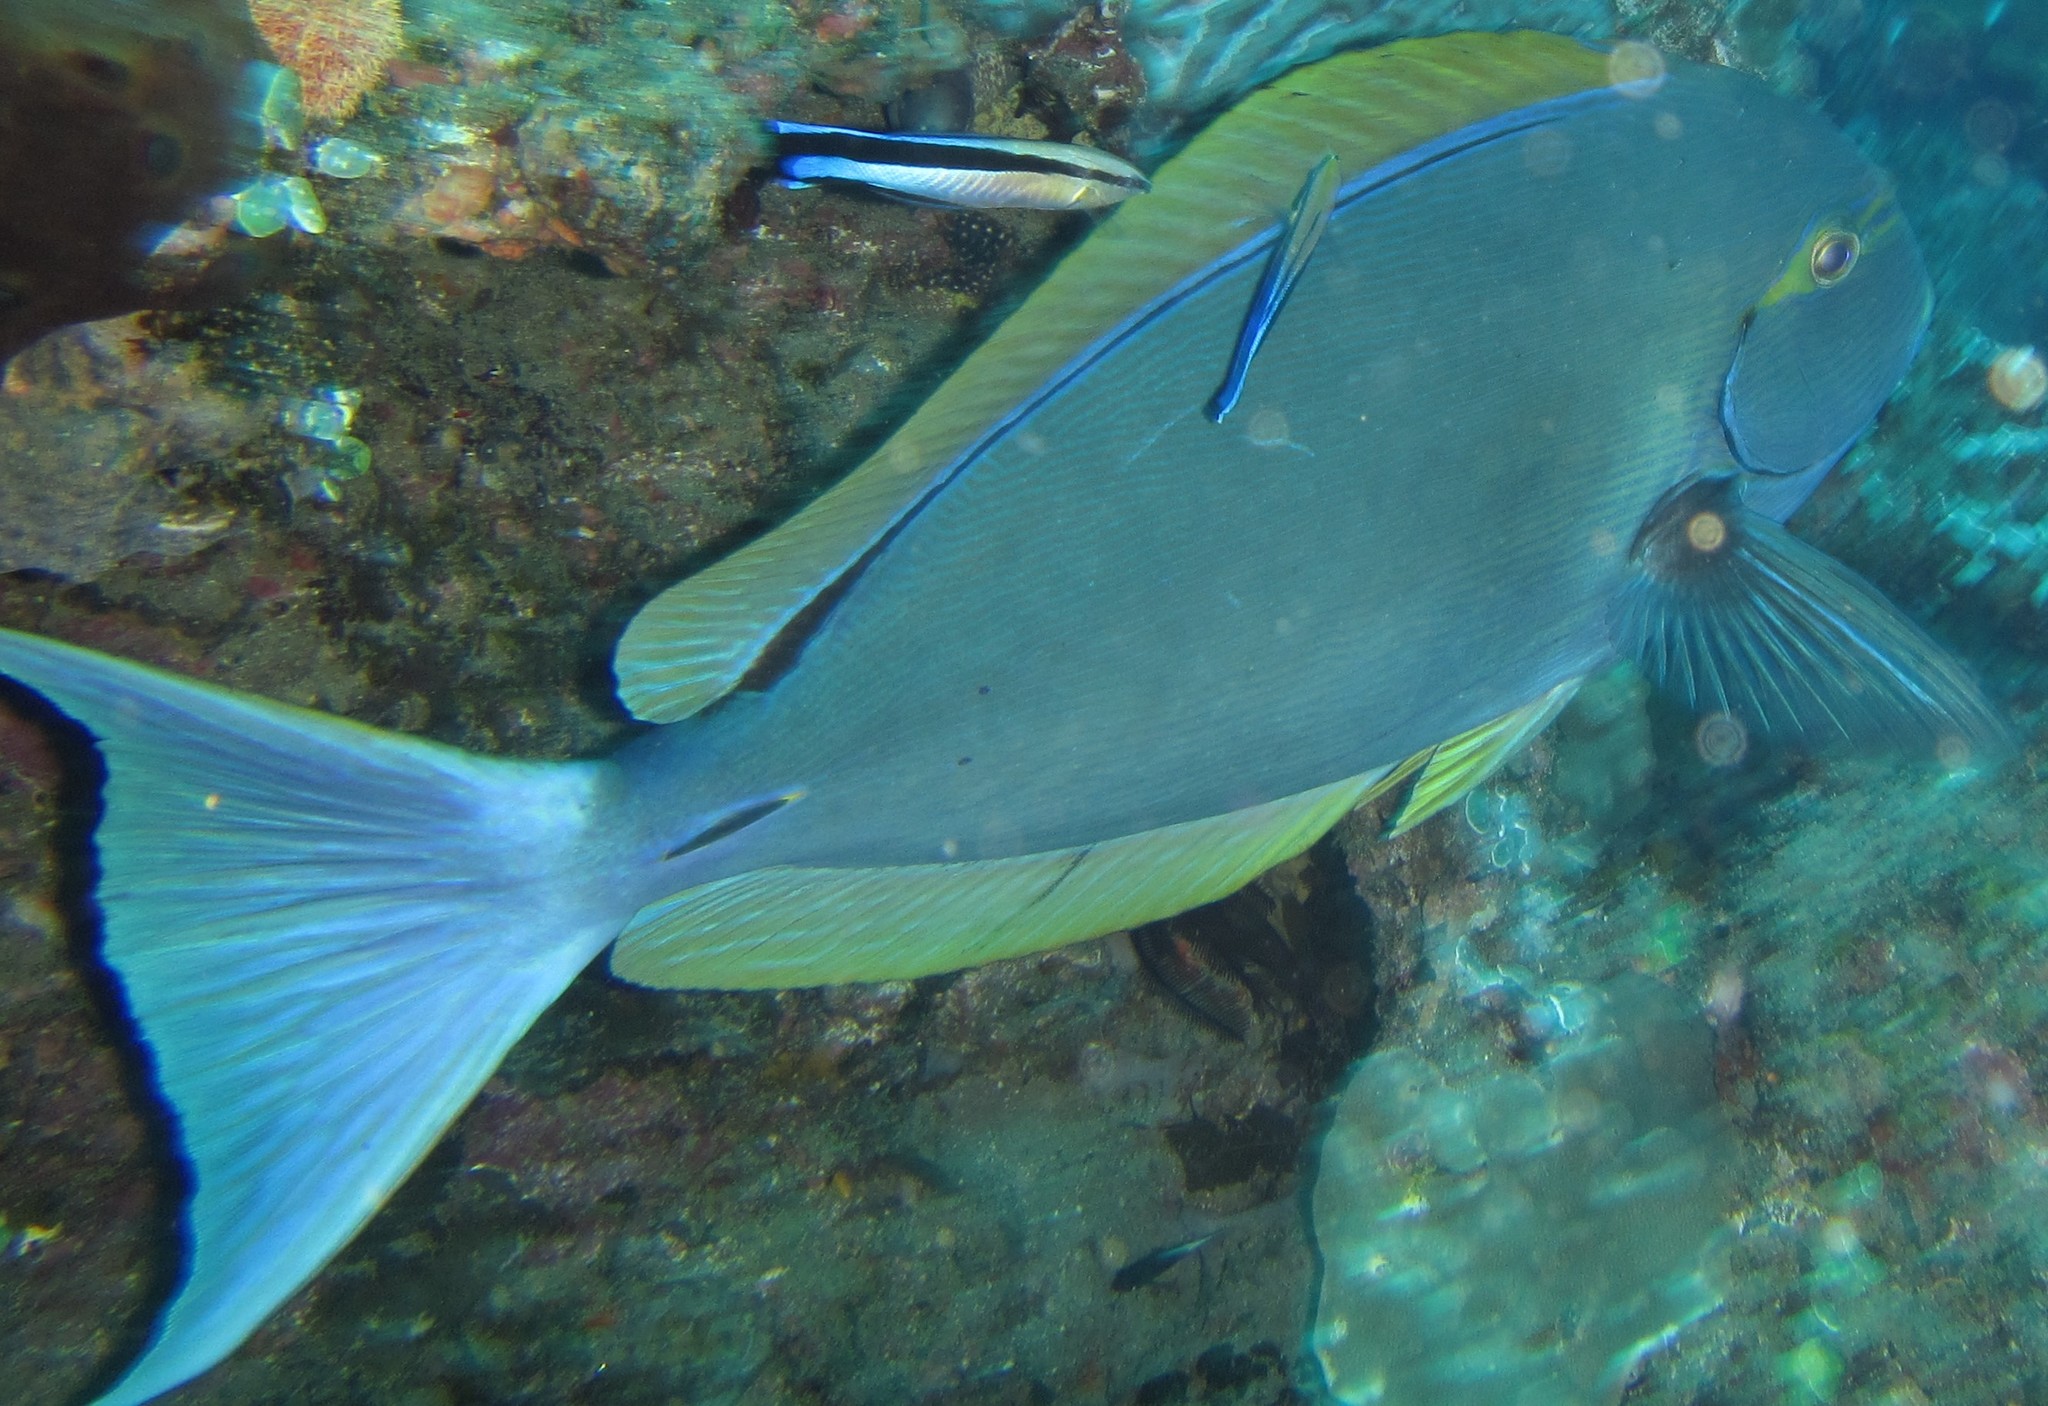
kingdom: Animalia
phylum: Chordata
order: Perciformes
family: Acanthuridae
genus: Acanthurus
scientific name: Acanthurus mata
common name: Bleeker's surgeonfish
